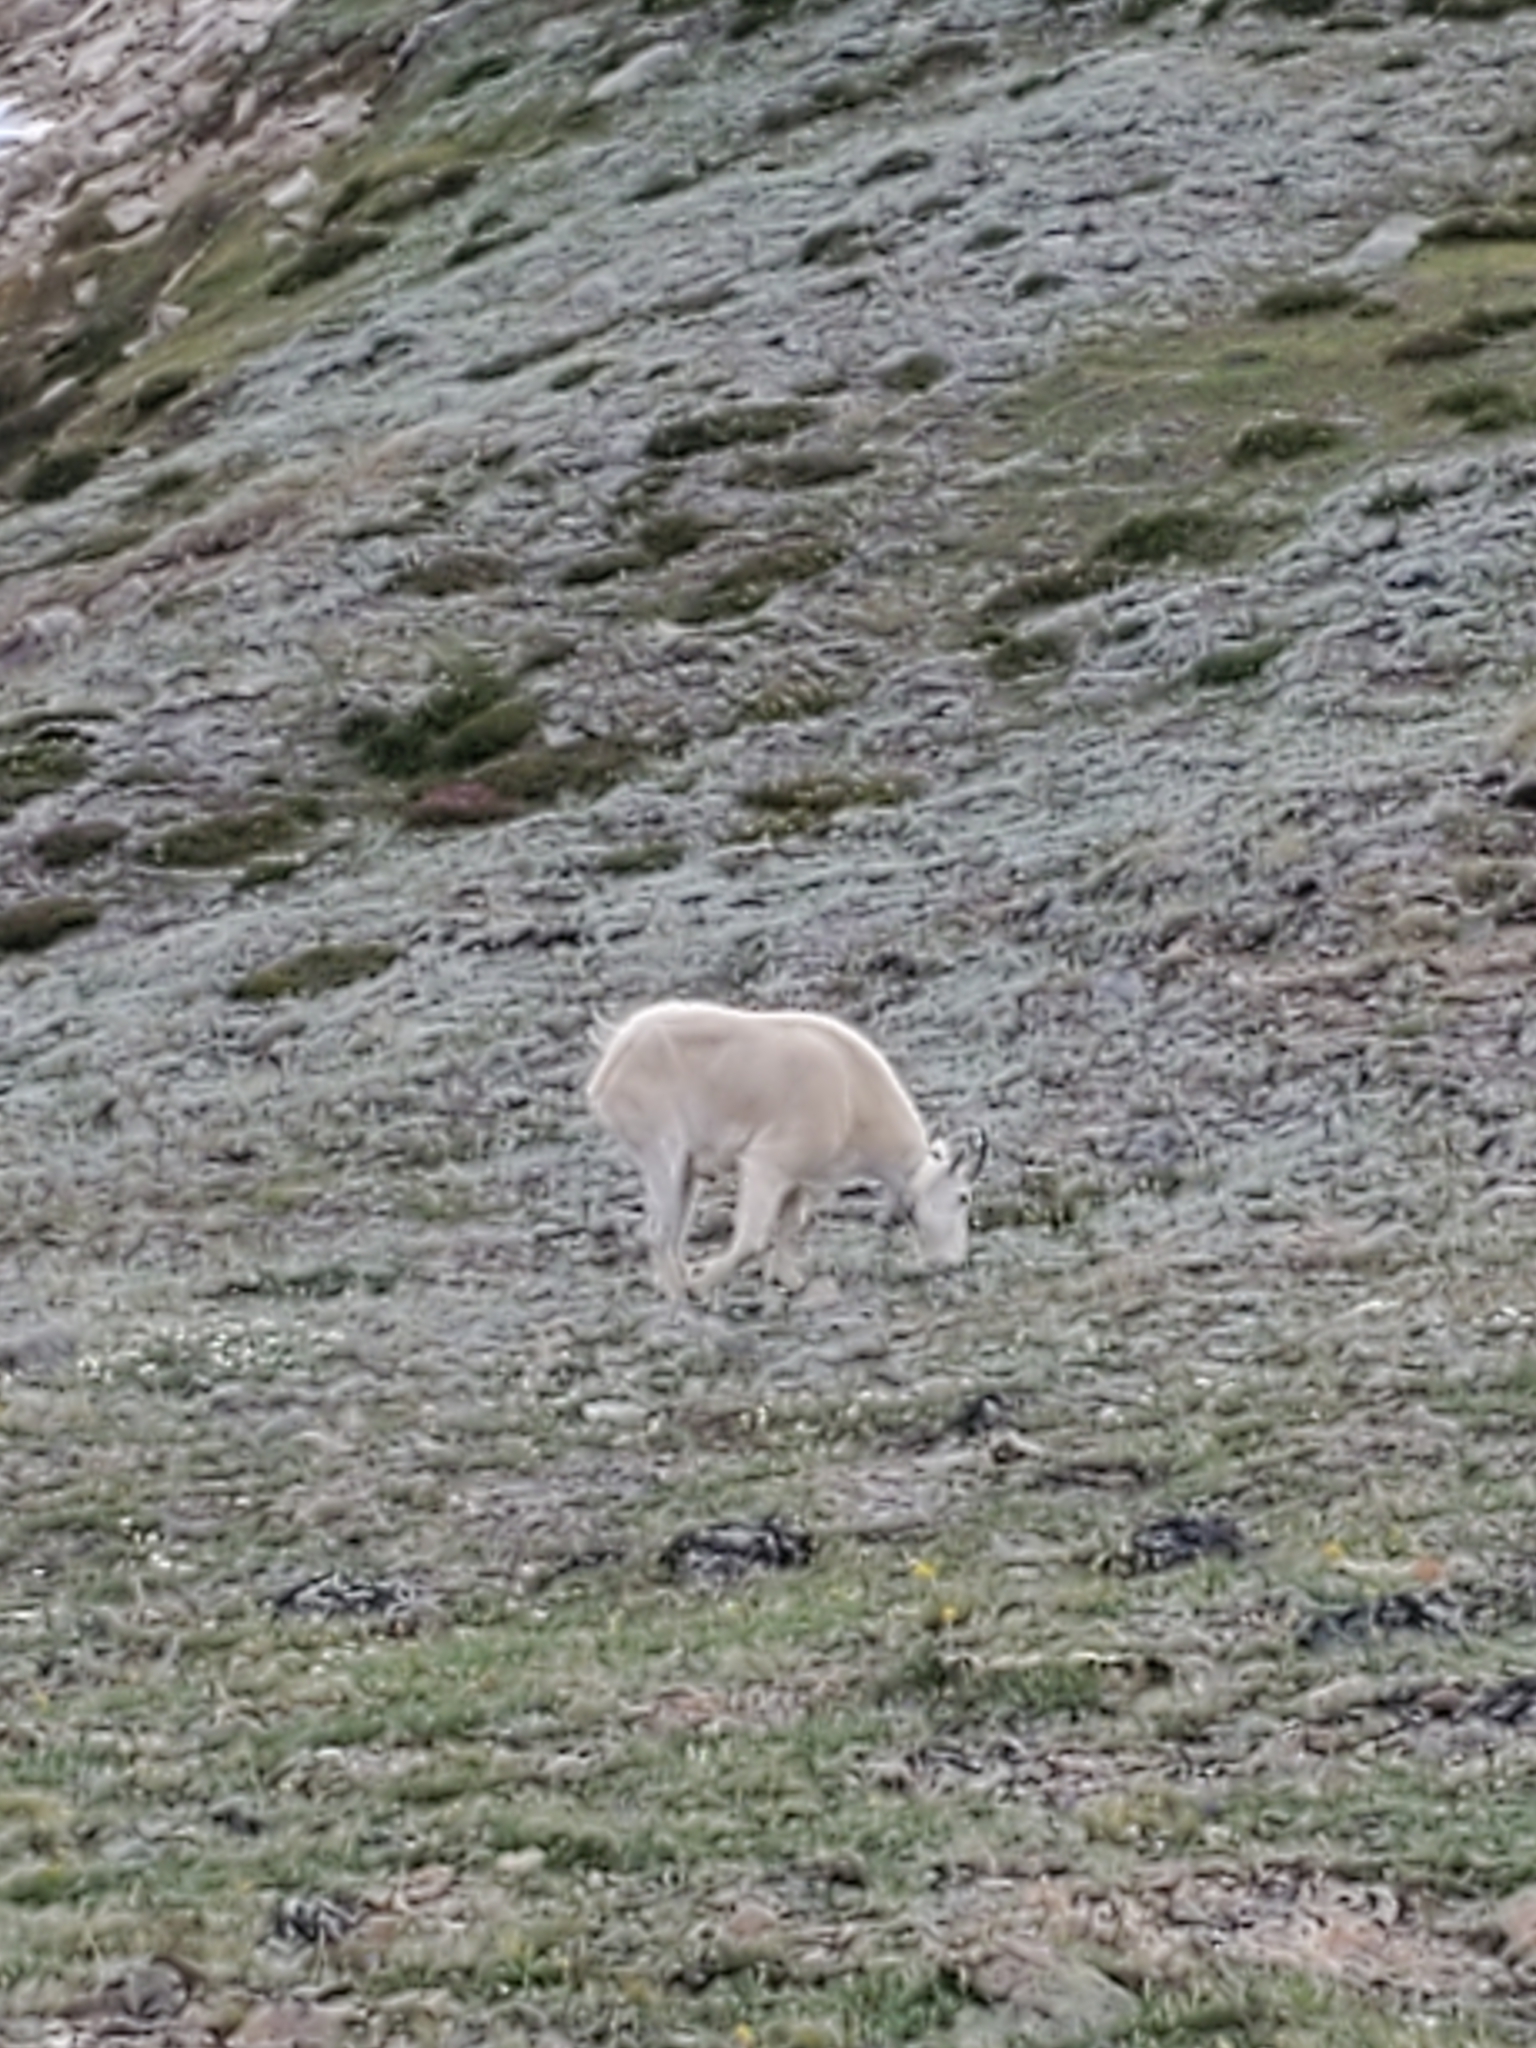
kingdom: Animalia
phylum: Chordata
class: Mammalia
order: Artiodactyla
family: Bovidae
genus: Oreamnos
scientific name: Oreamnos americanus
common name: Mountain goat
